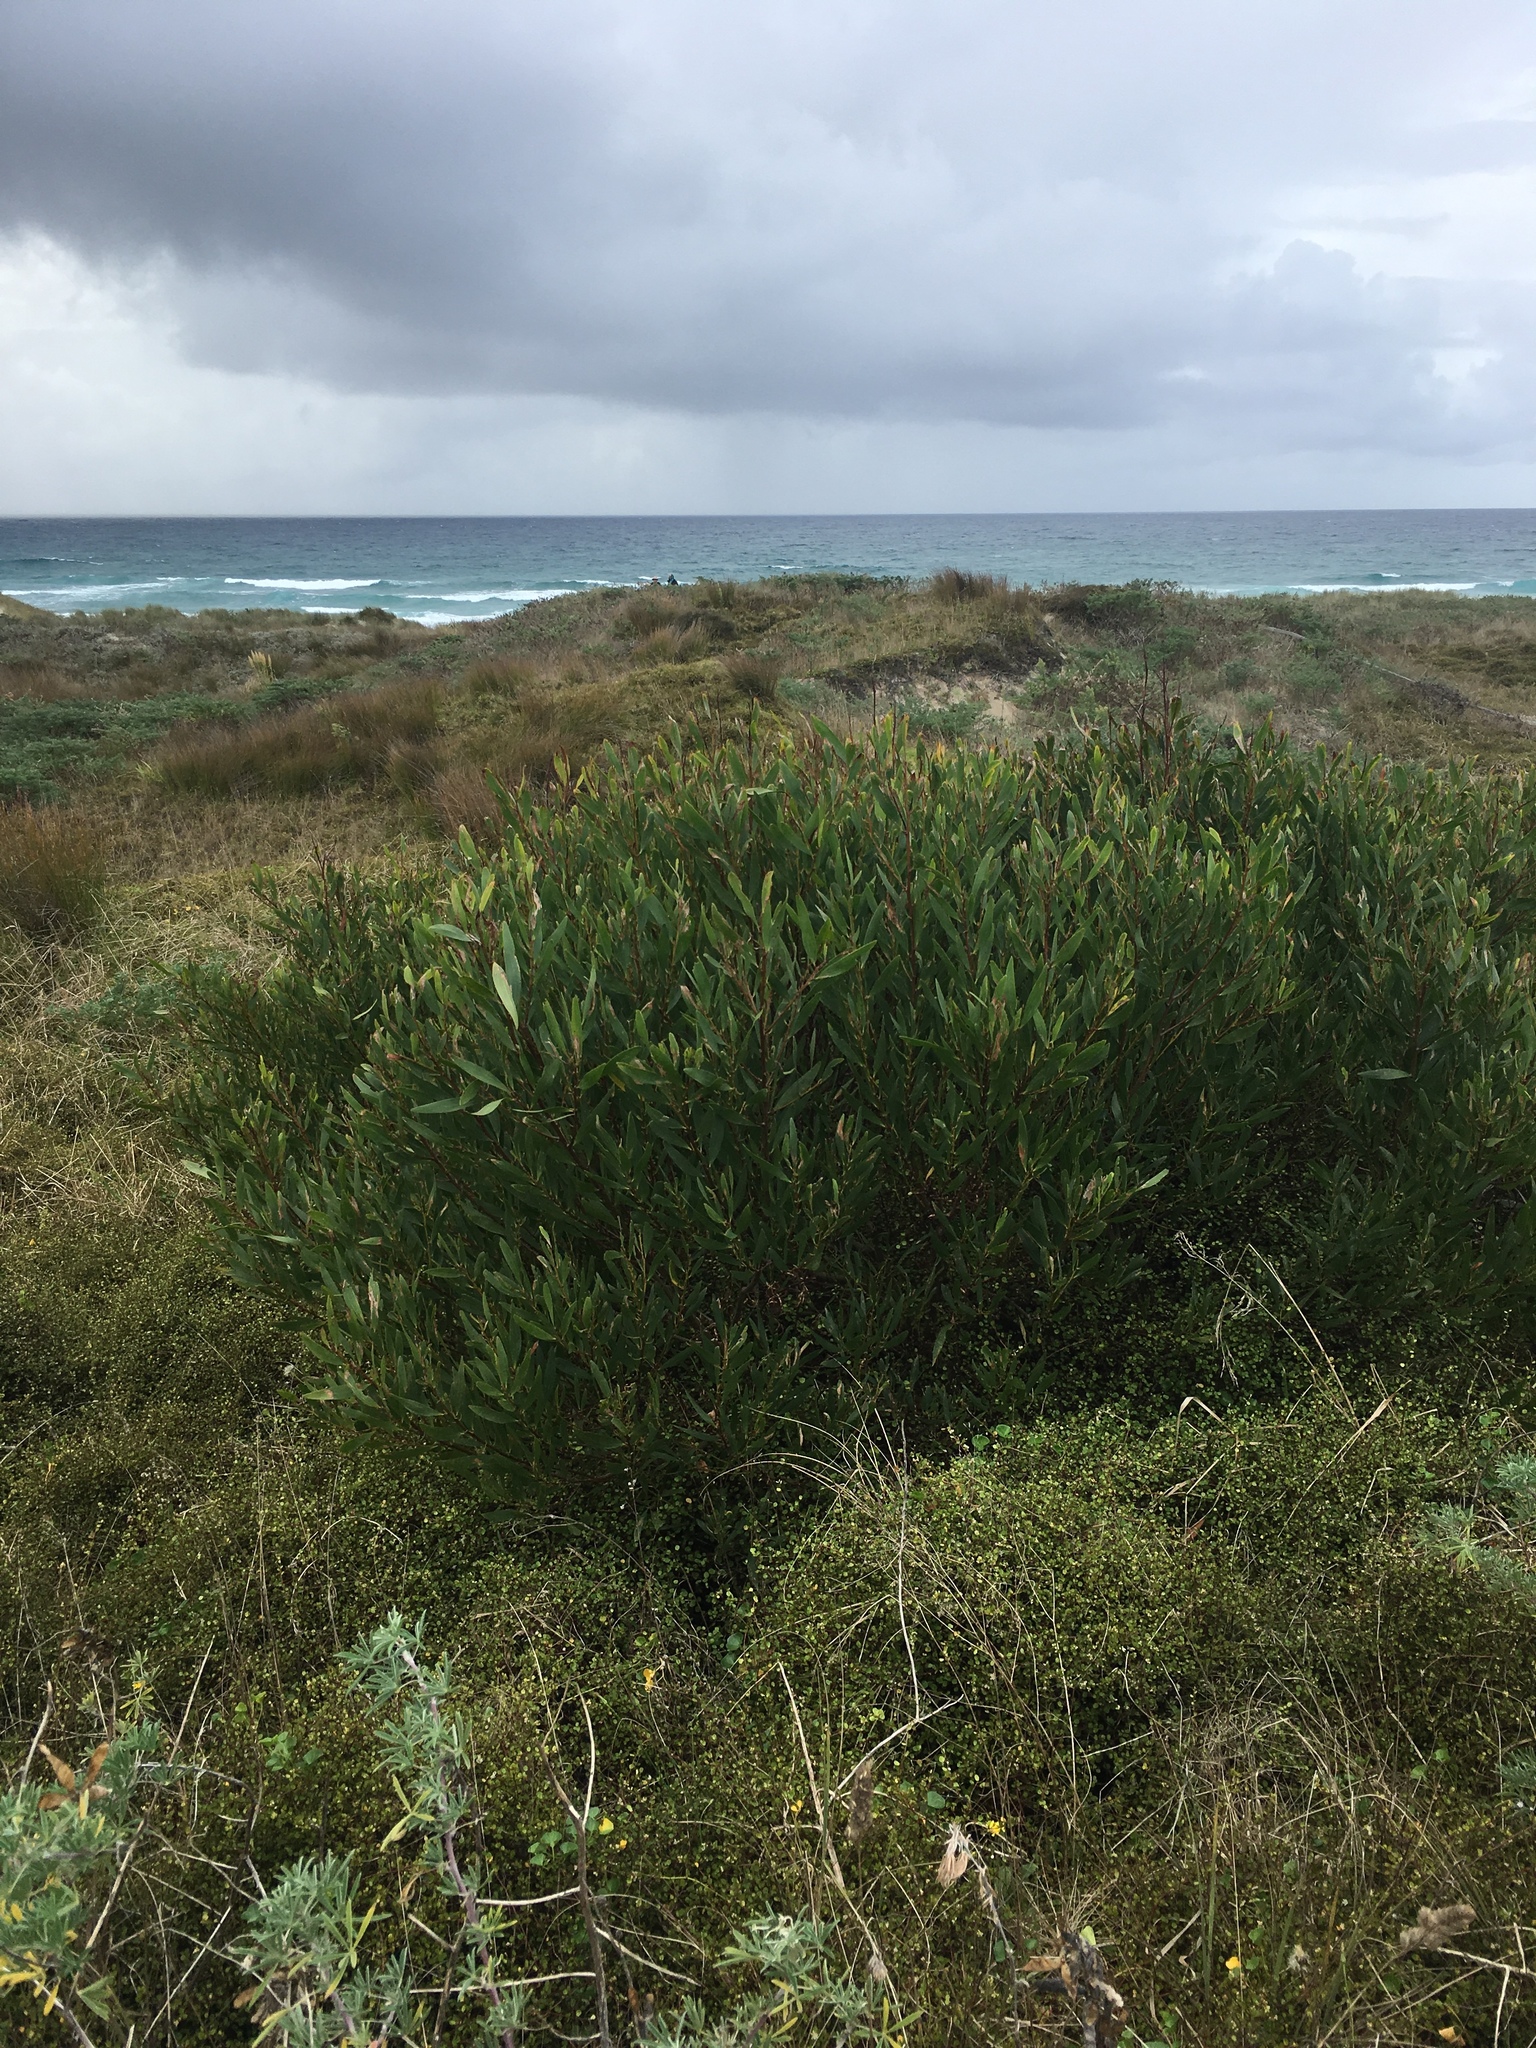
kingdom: Plantae
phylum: Tracheophyta
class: Magnoliopsida
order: Fabales
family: Fabaceae
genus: Acacia
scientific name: Acacia longifolia
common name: Sydney golden wattle
